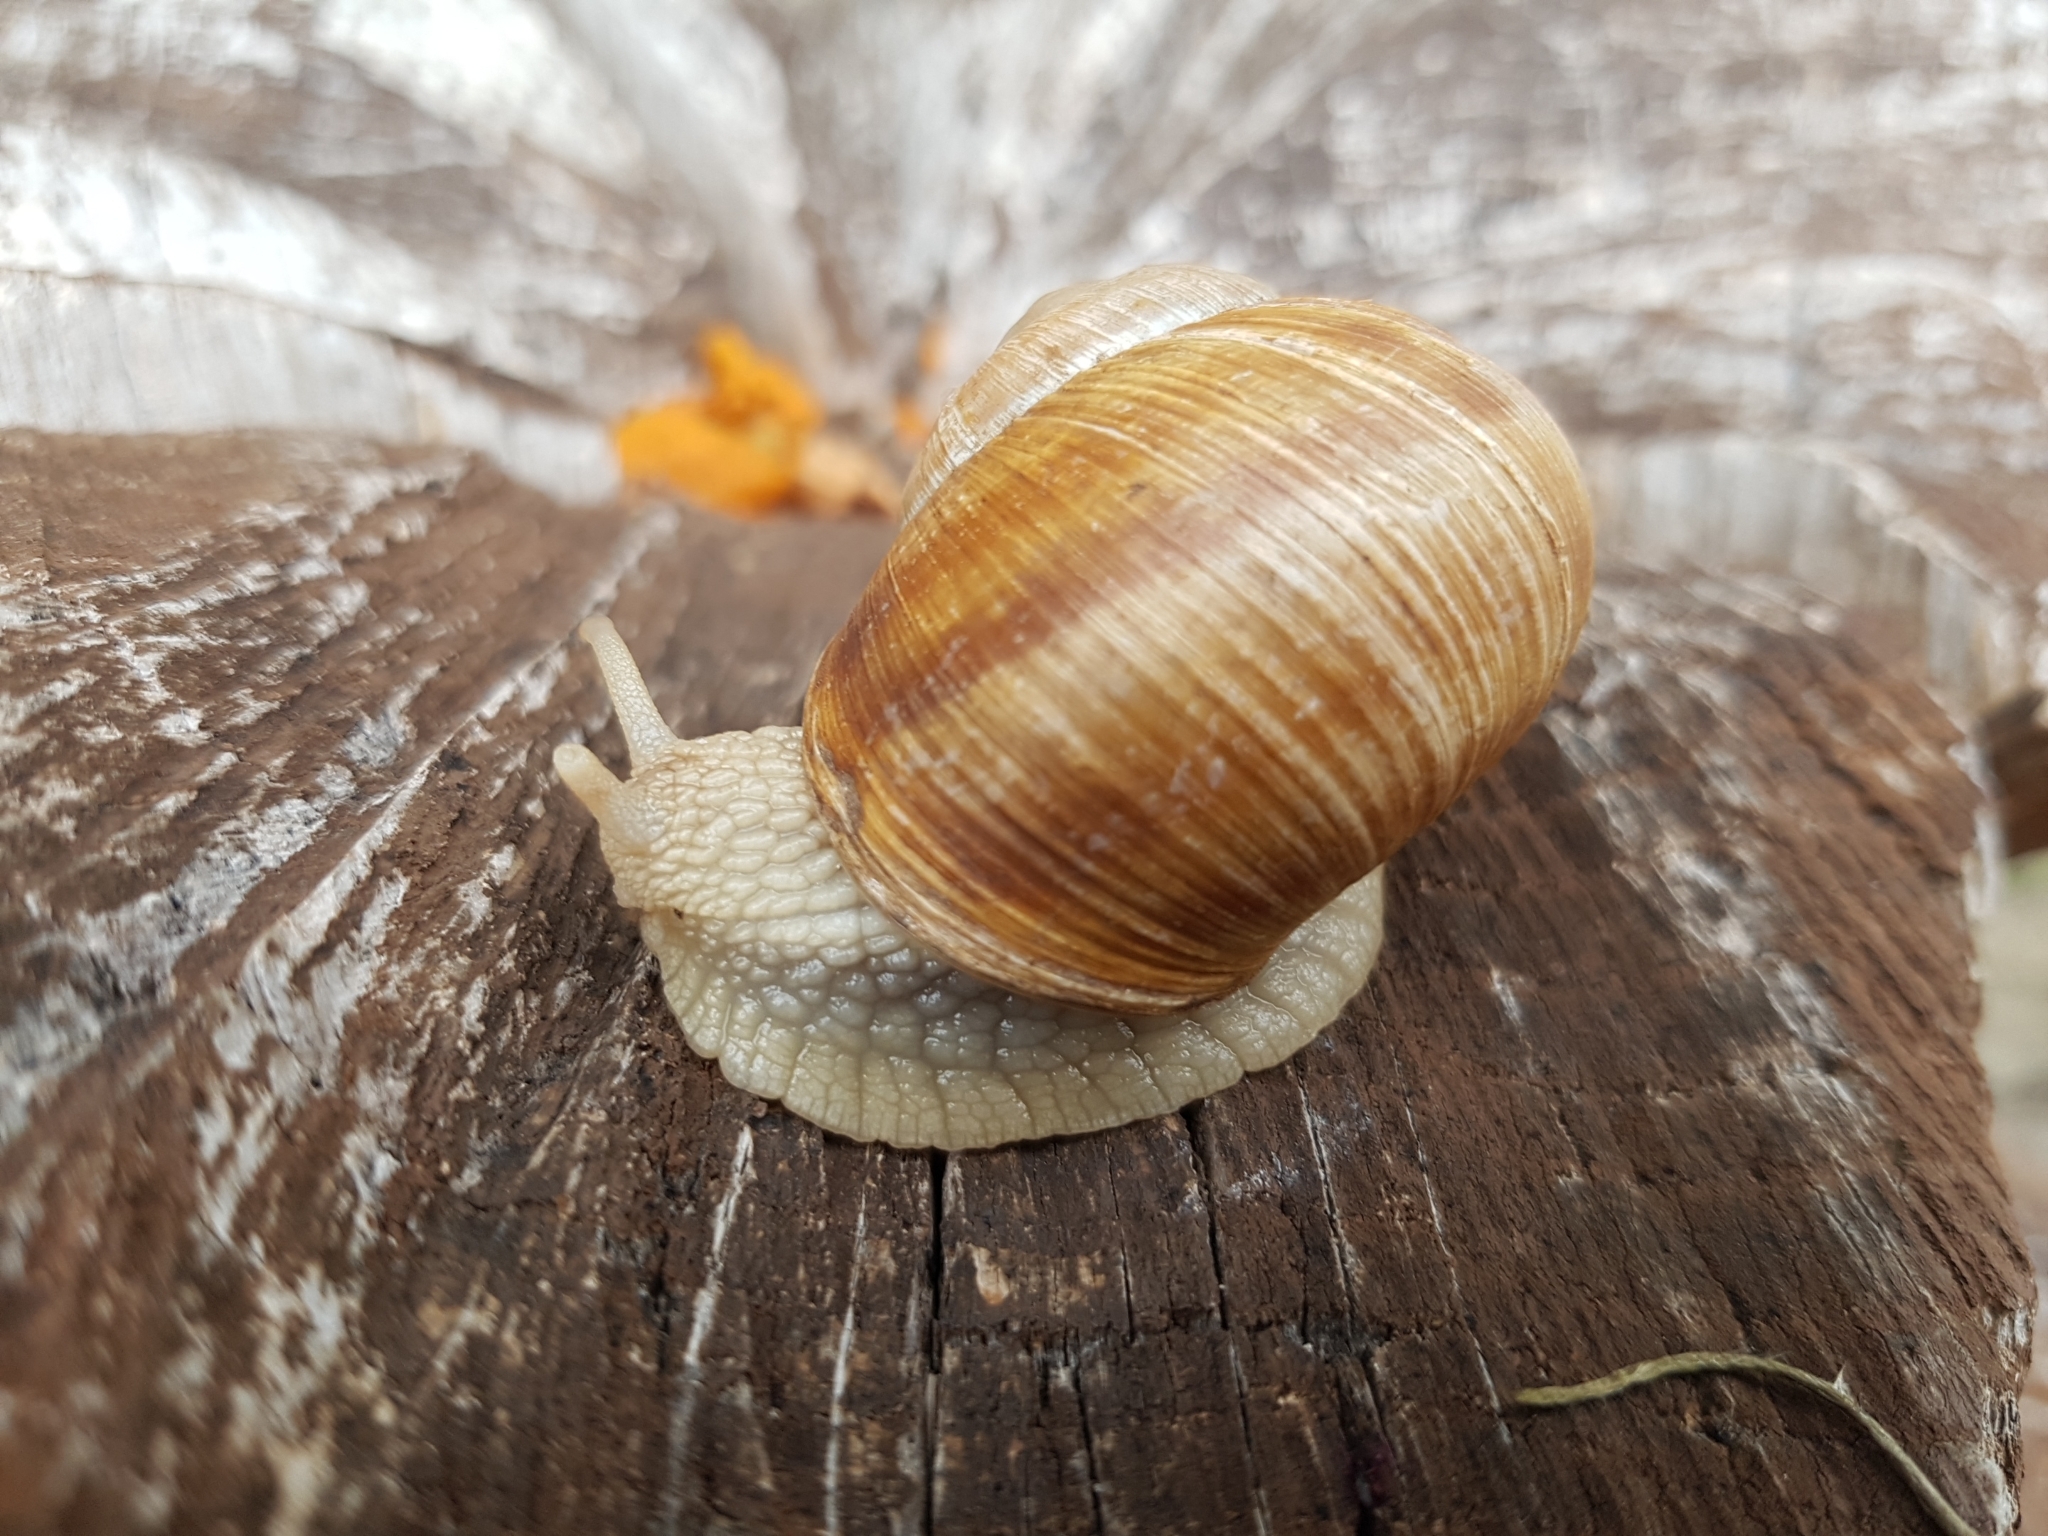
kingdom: Animalia
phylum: Mollusca
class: Gastropoda
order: Stylommatophora
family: Helicidae
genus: Helix
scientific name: Helix pomatia
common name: Roman snail
